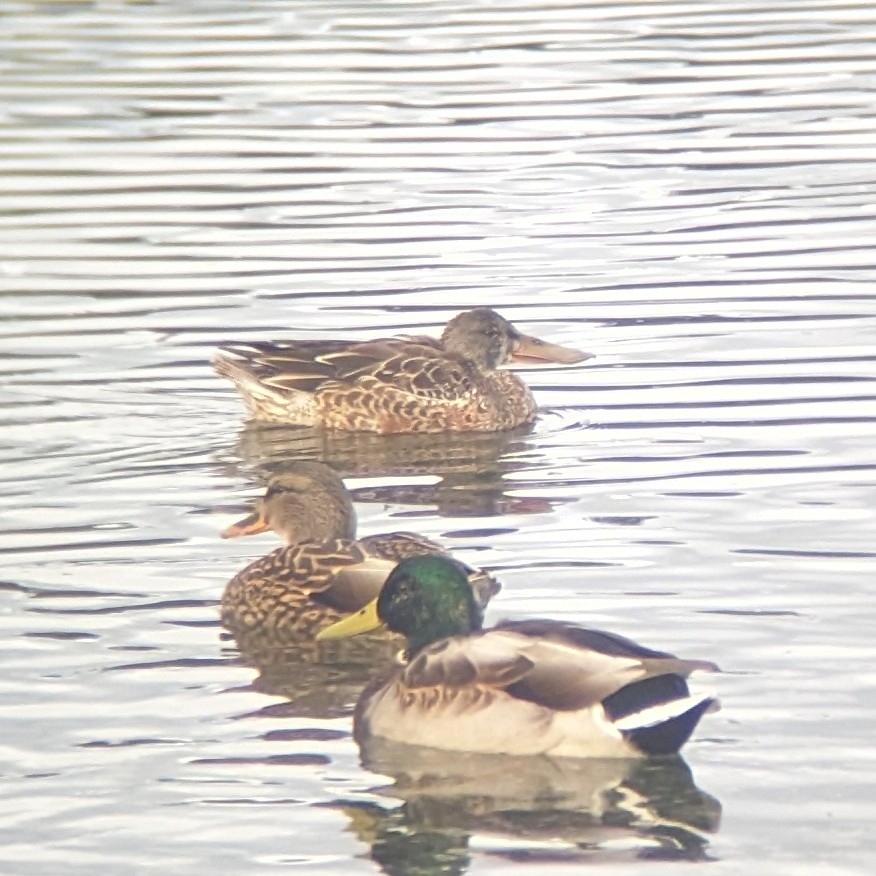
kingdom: Animalia
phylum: Chordata
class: Aves
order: Anseriformes
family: Anatidae
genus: Spatula
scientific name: Spatula clypeata
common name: Northern shoveler
